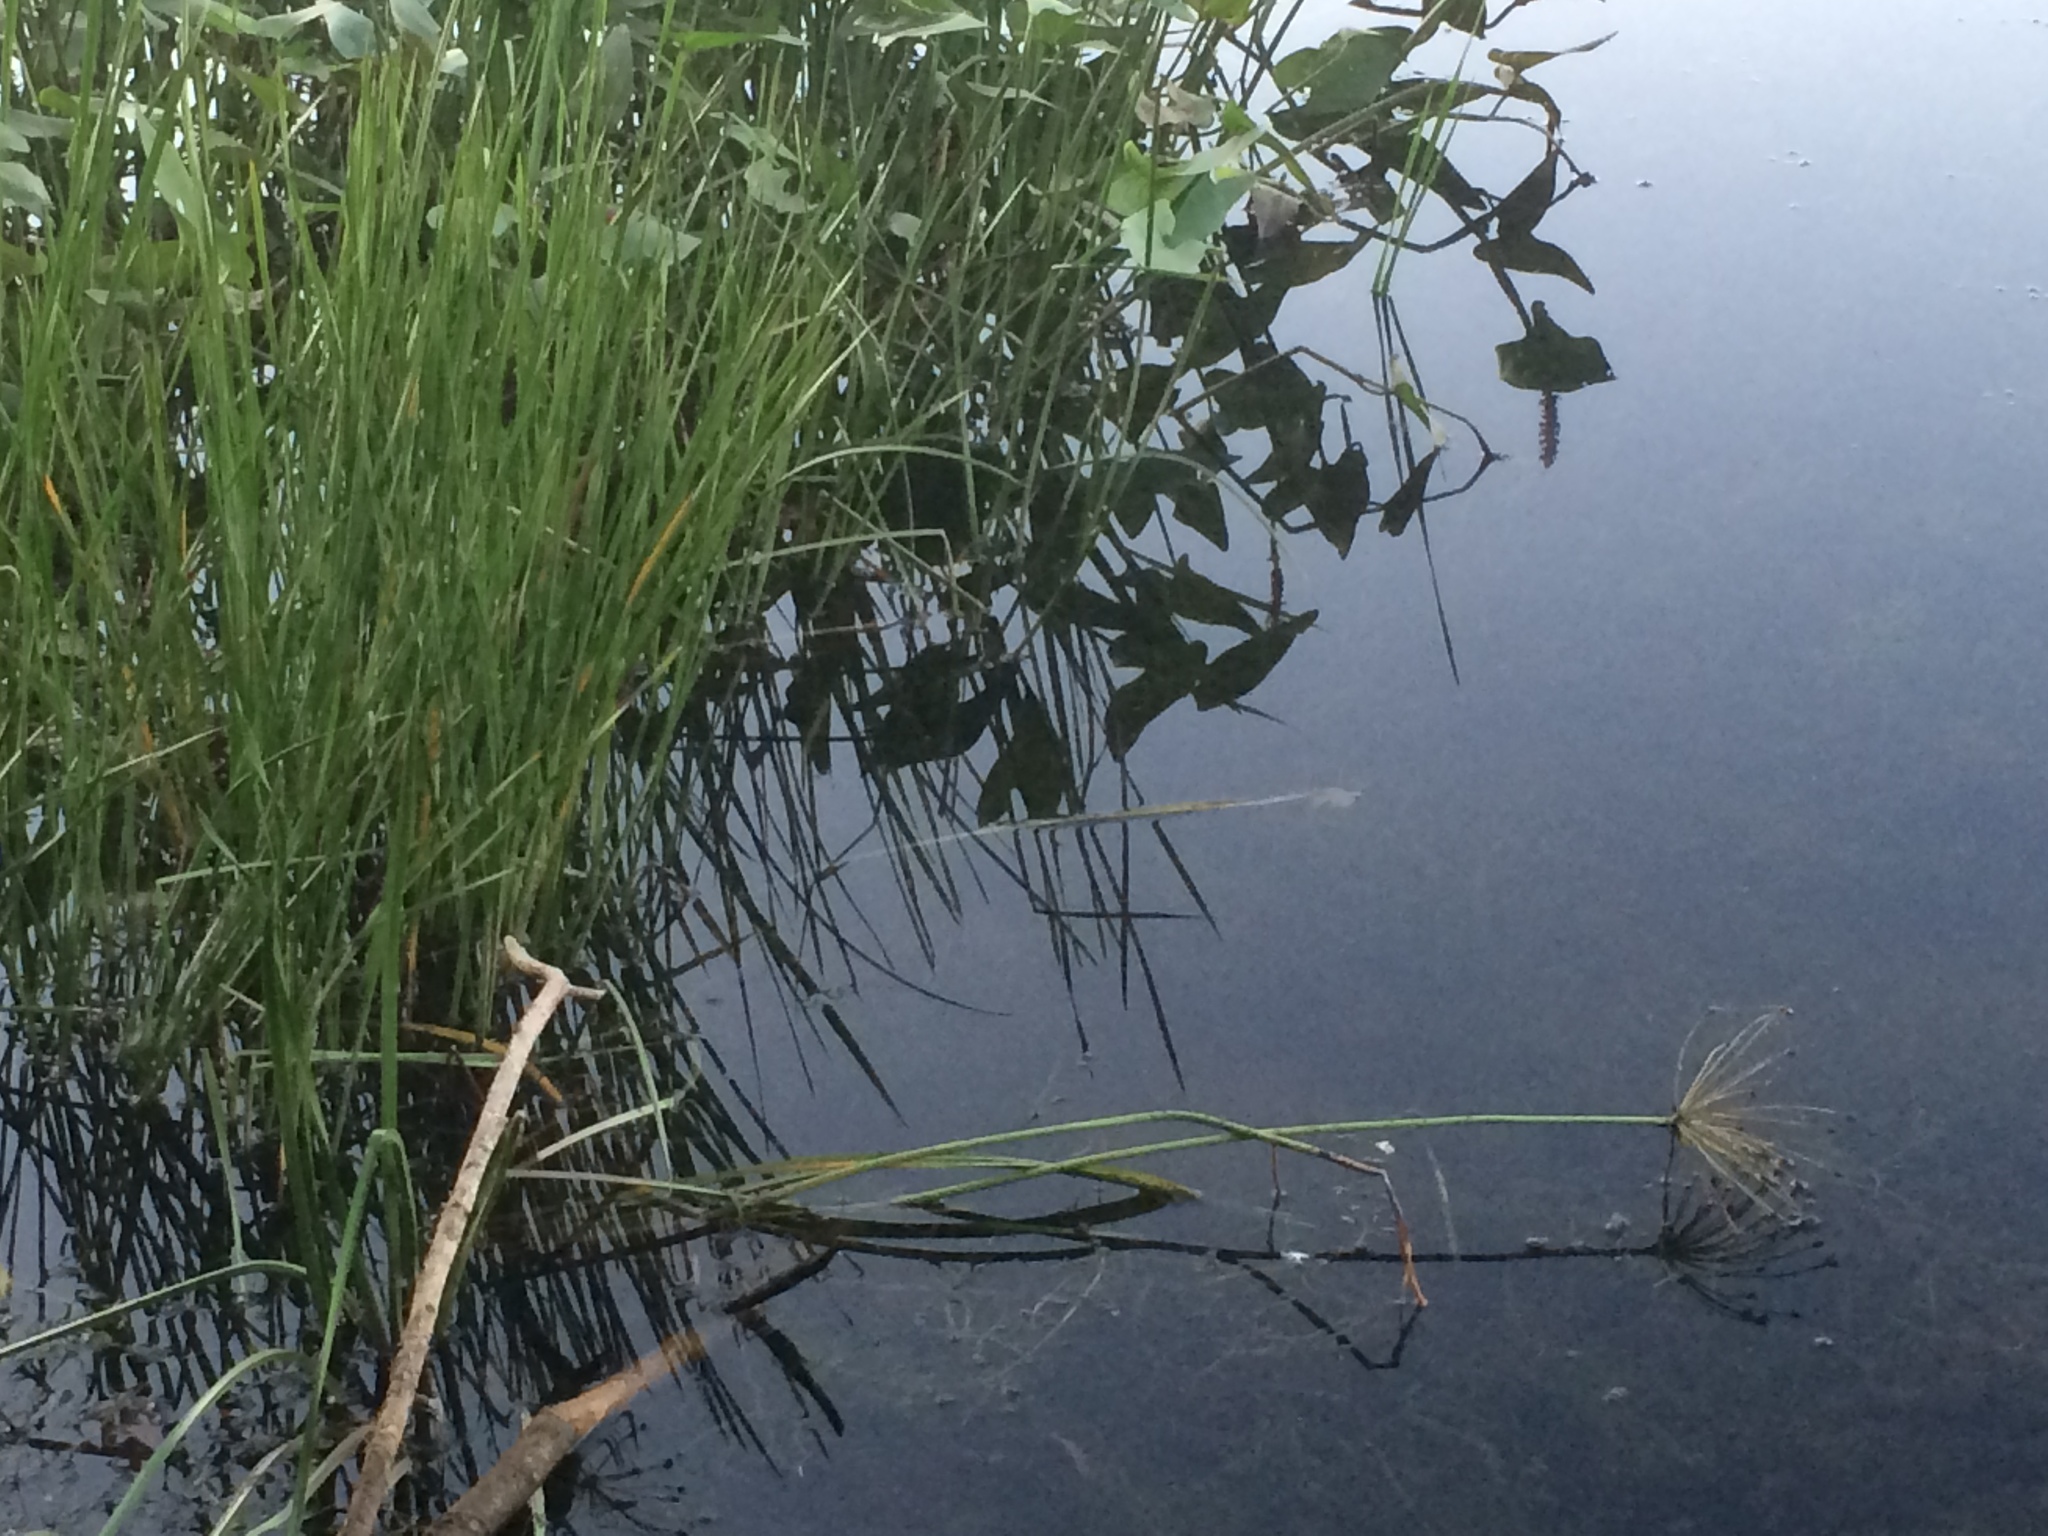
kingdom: Plantae
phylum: Tracheophyta
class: Liliopsida
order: Alismatales
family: Butomaceae
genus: Butomus
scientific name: Butomus umbellatus
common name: Flowering-rush
